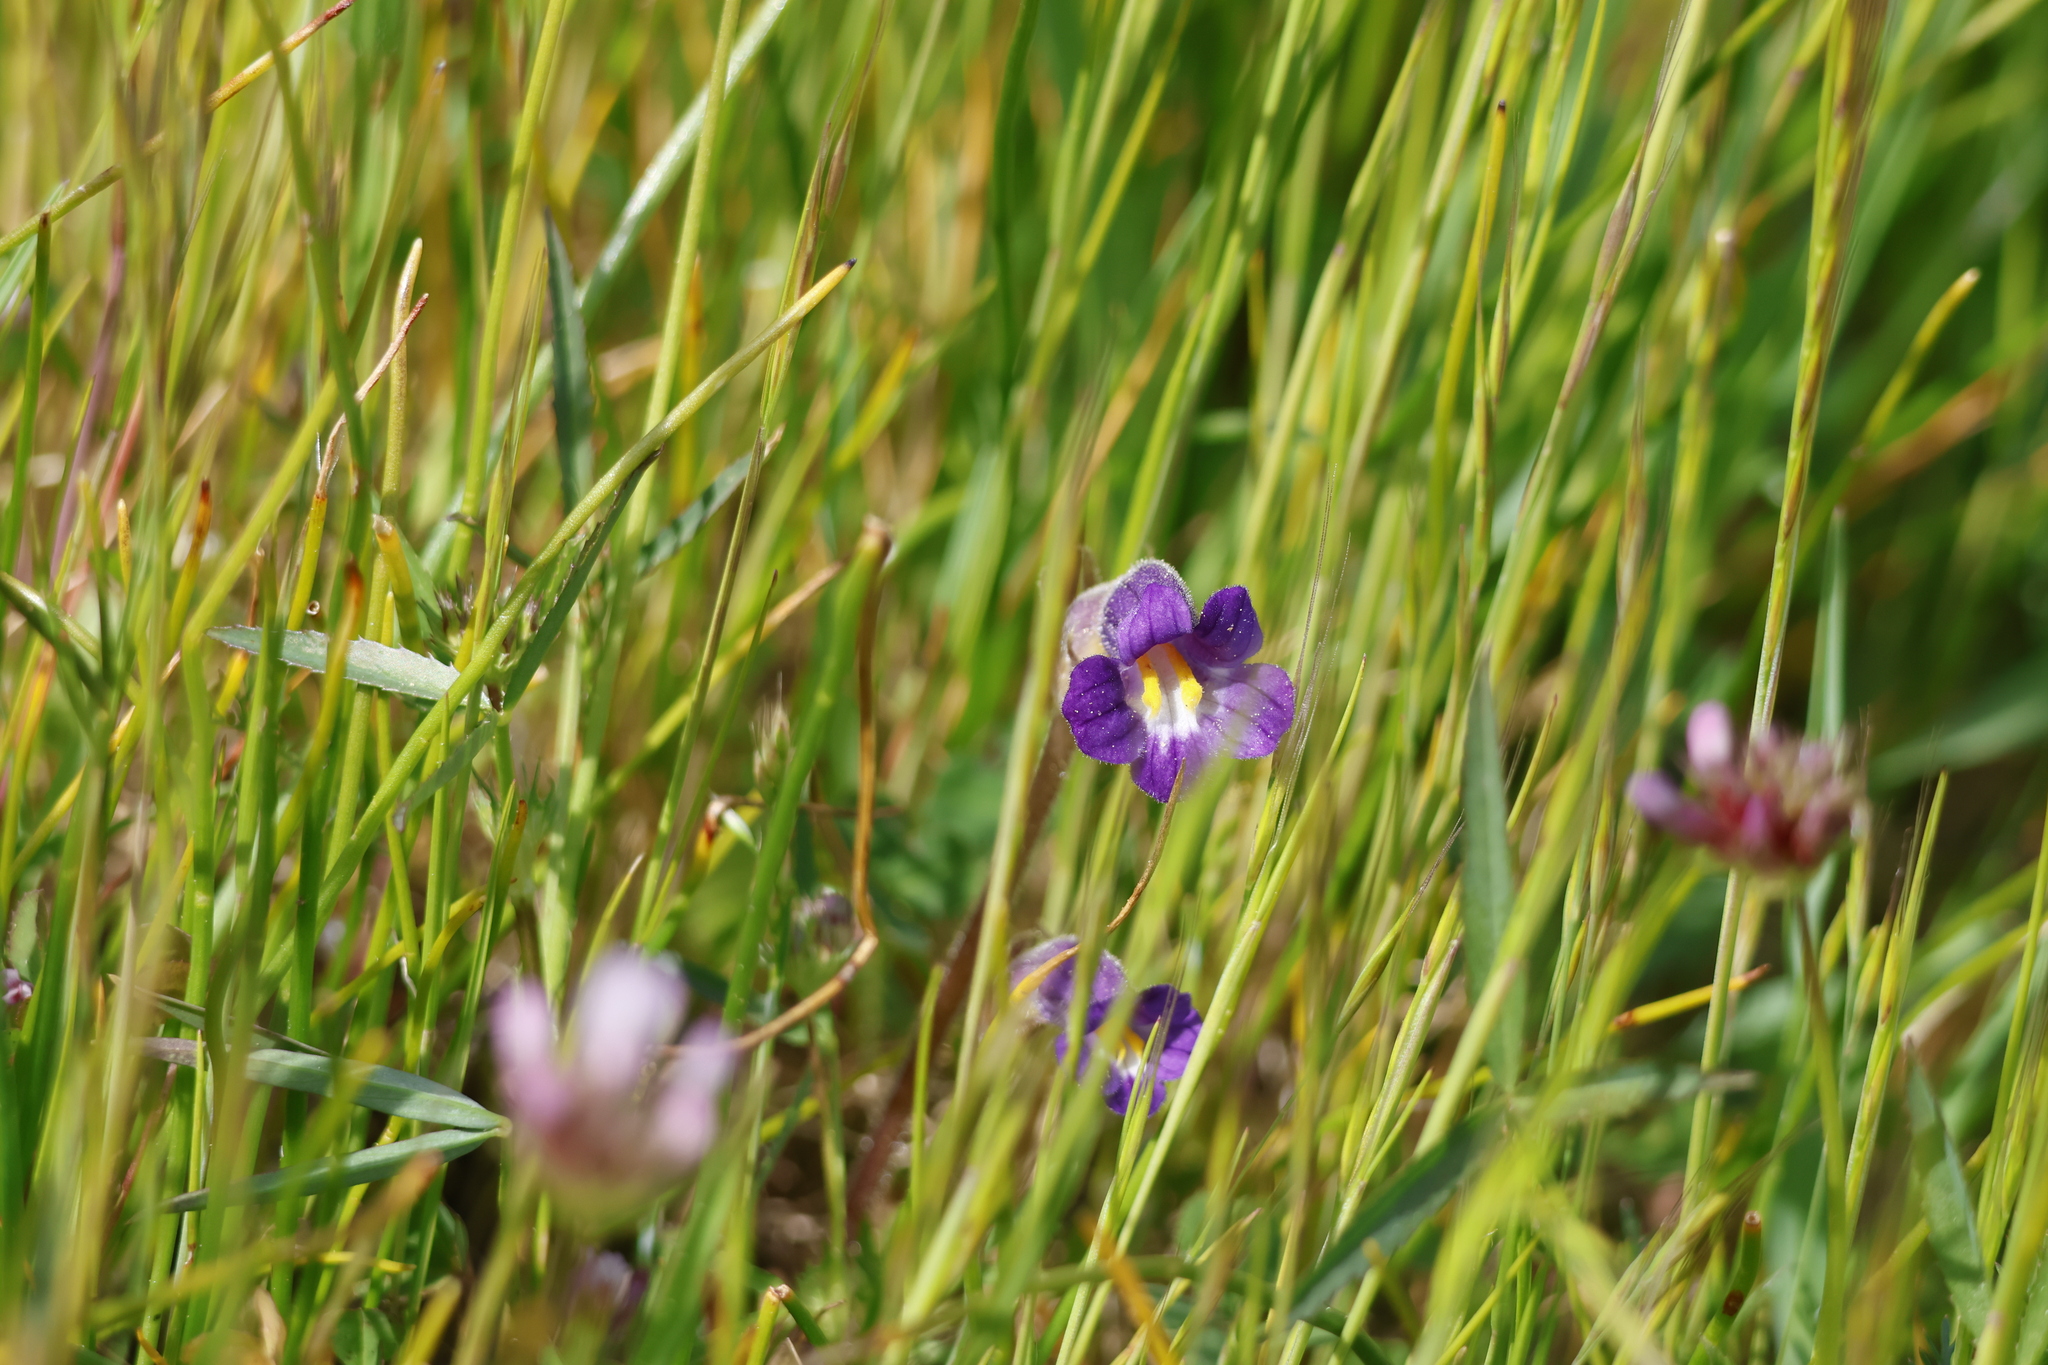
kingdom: Plantae
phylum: Tracheophyta
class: Magnoliopsida
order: Lamiales
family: Orobanchaceae
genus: Aphyllon
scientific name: Aphyllon uniflorum
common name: One-flowered broomrape
